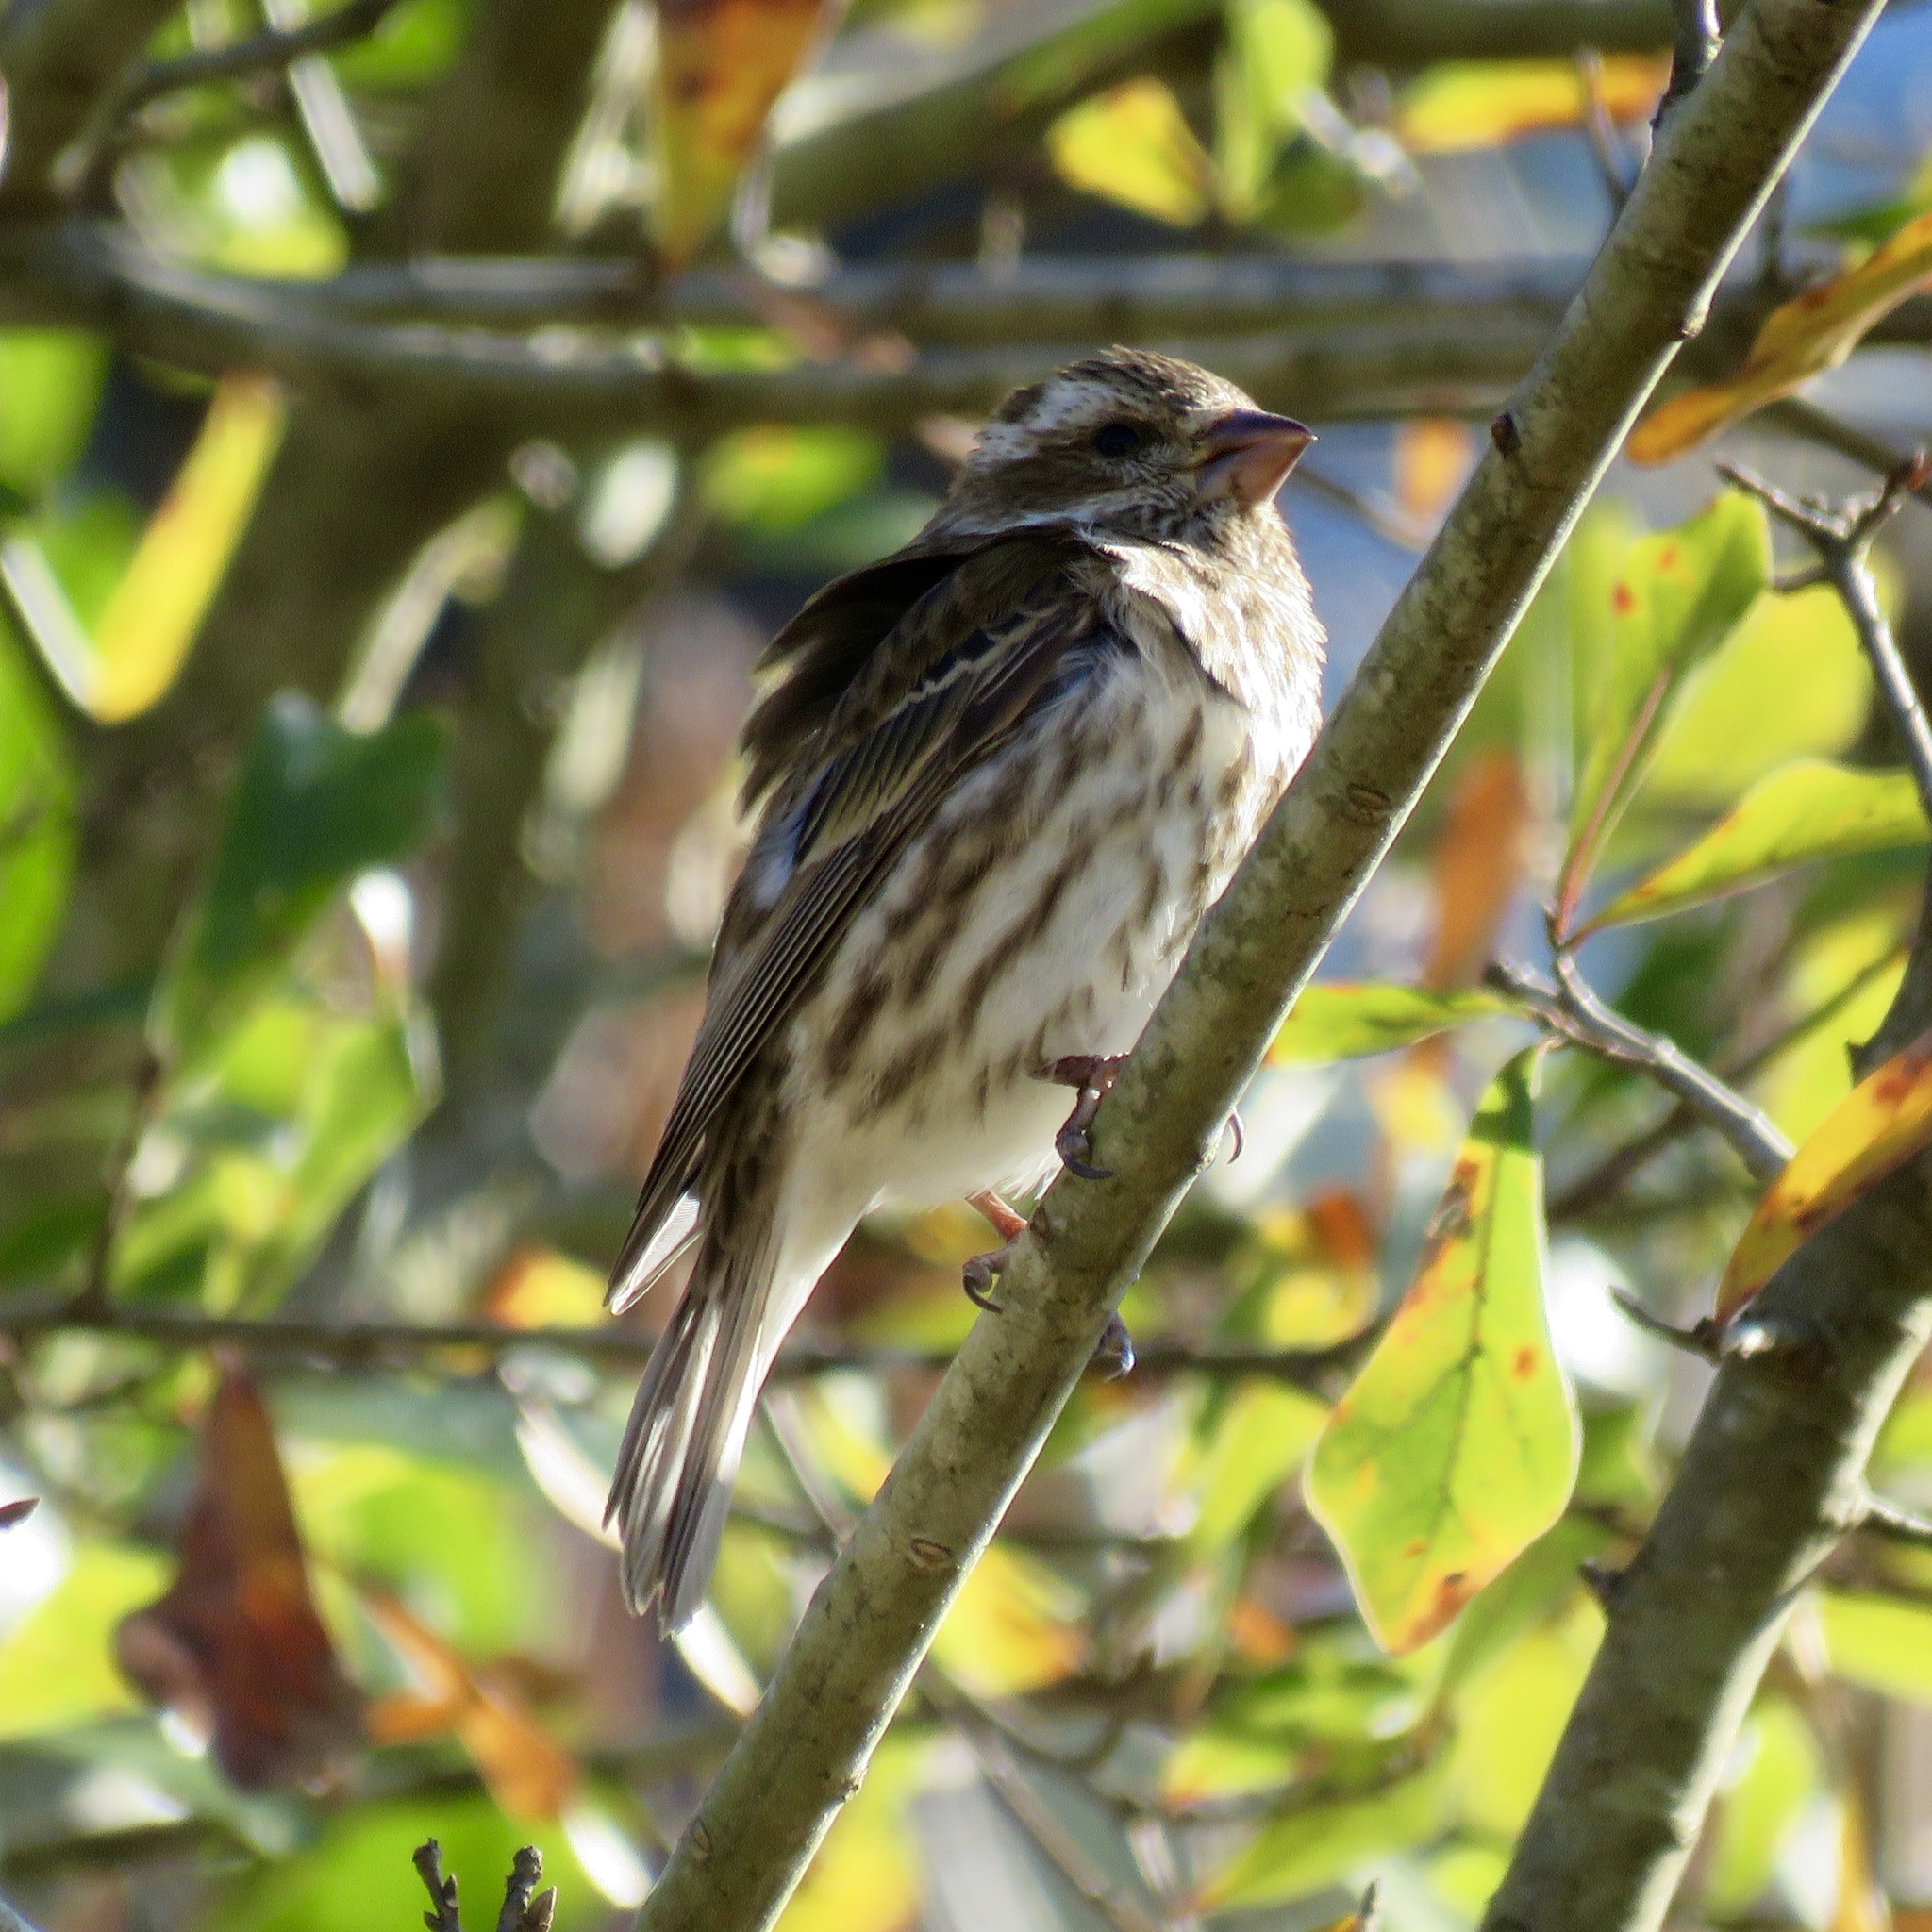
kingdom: Animalia
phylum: Chordata
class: Aves
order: Passeriformes
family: Fringillidae
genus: Haemorhous
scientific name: Haemorhous purpureus
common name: Purple finch
